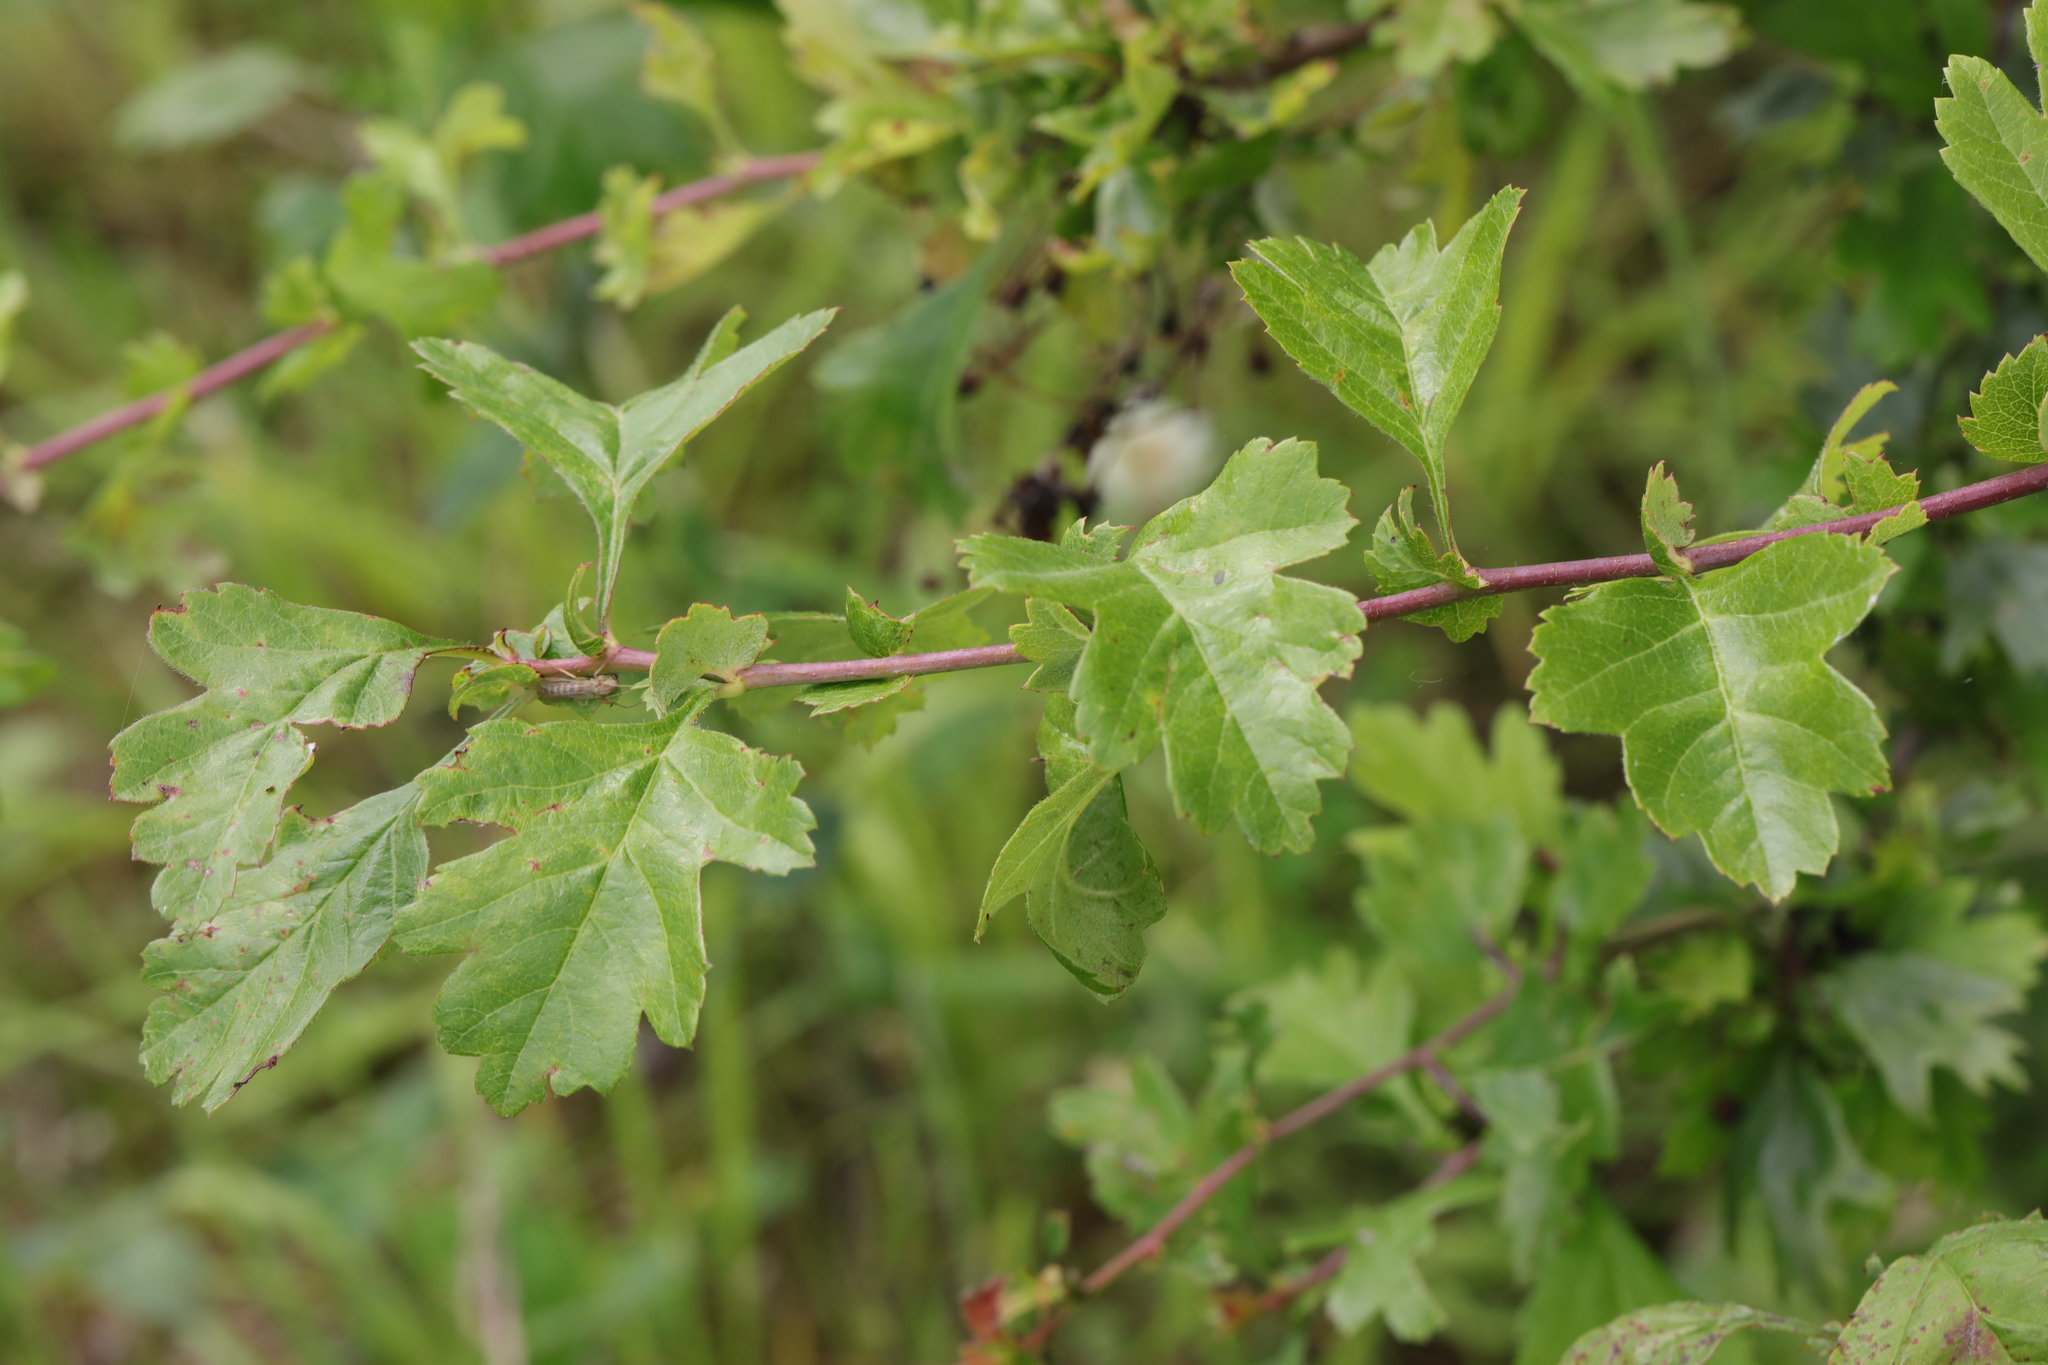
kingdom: Plantae
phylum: Tracheophyta
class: Magnoliopsida
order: Rosales
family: Rosaceae
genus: Crataegus
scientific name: Crataegus monogyna
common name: Hawthorn
